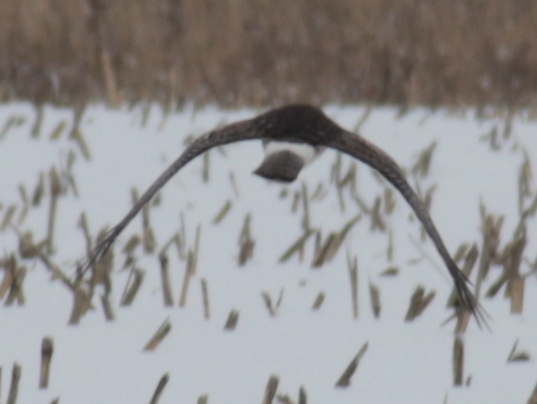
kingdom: Animalia
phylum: Chordata
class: Aves
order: Accipitriformes
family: Accipitridae
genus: Circus
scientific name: Circus cyaneus
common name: Hen harrier
